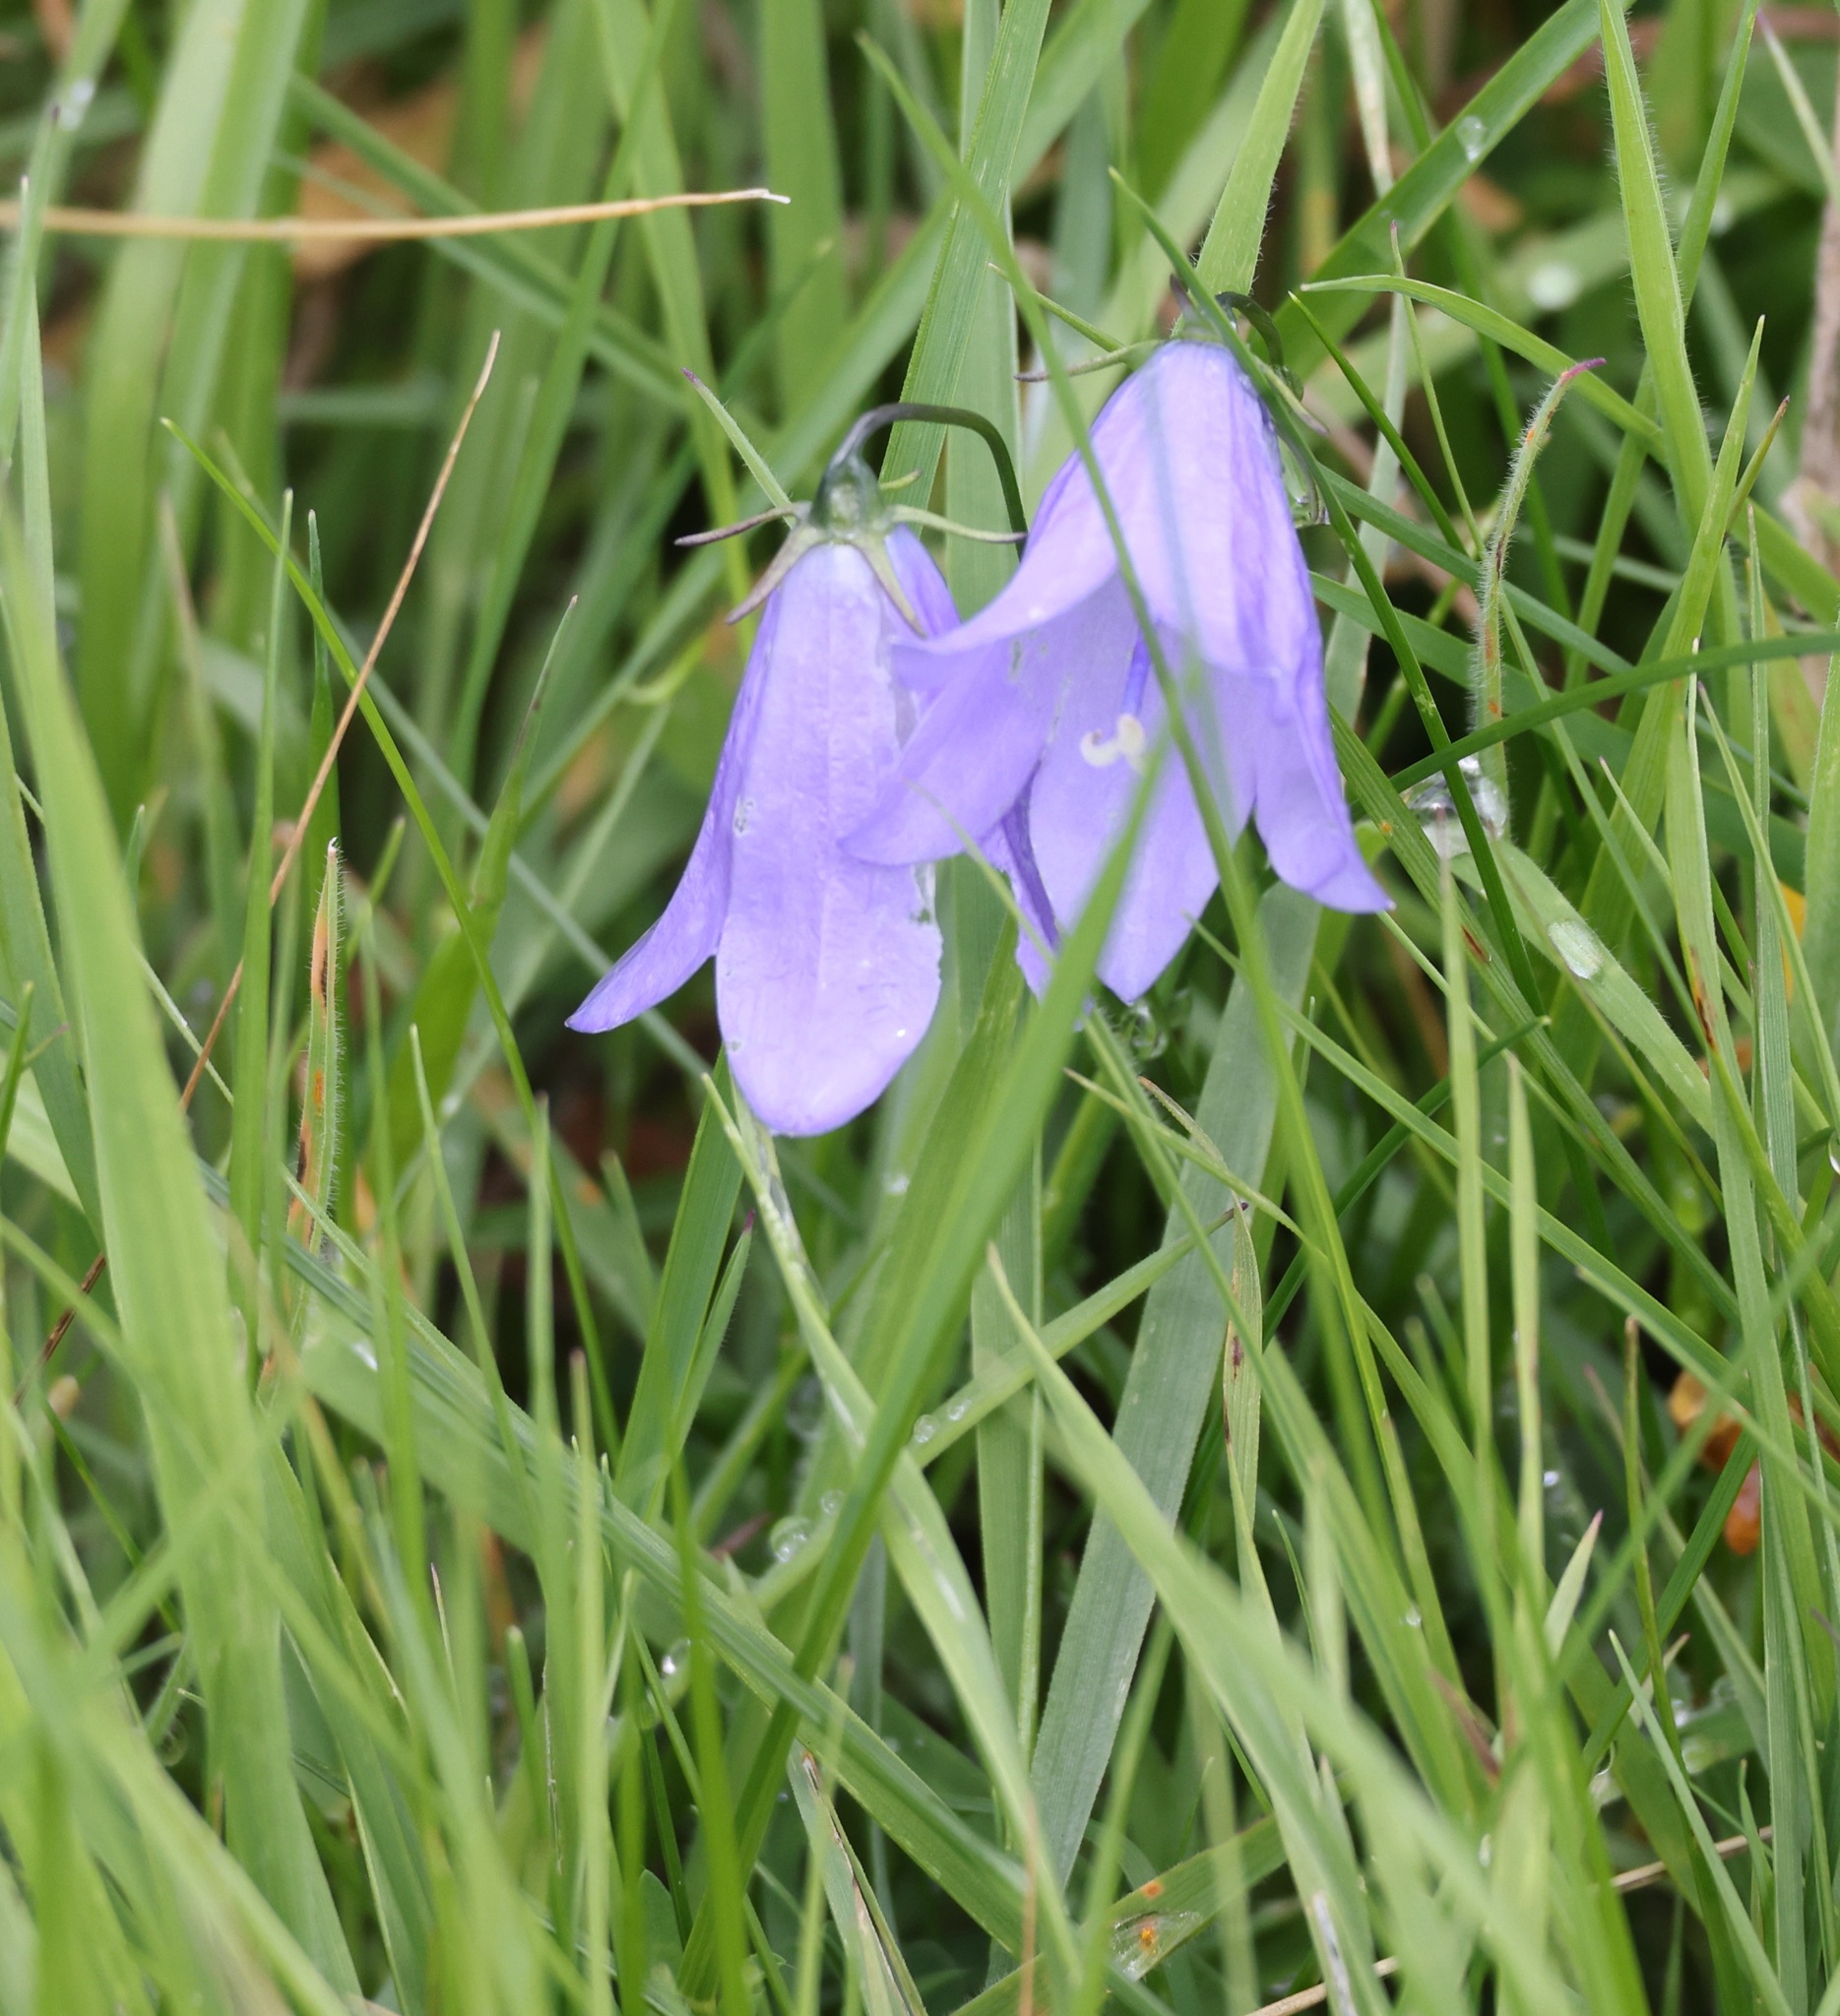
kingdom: Plantae
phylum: Tracheophyta
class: Magnoliopsida
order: Asterales
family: Campanulaceae
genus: Campanula
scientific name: Campanula rotundifolia
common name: Harebell
